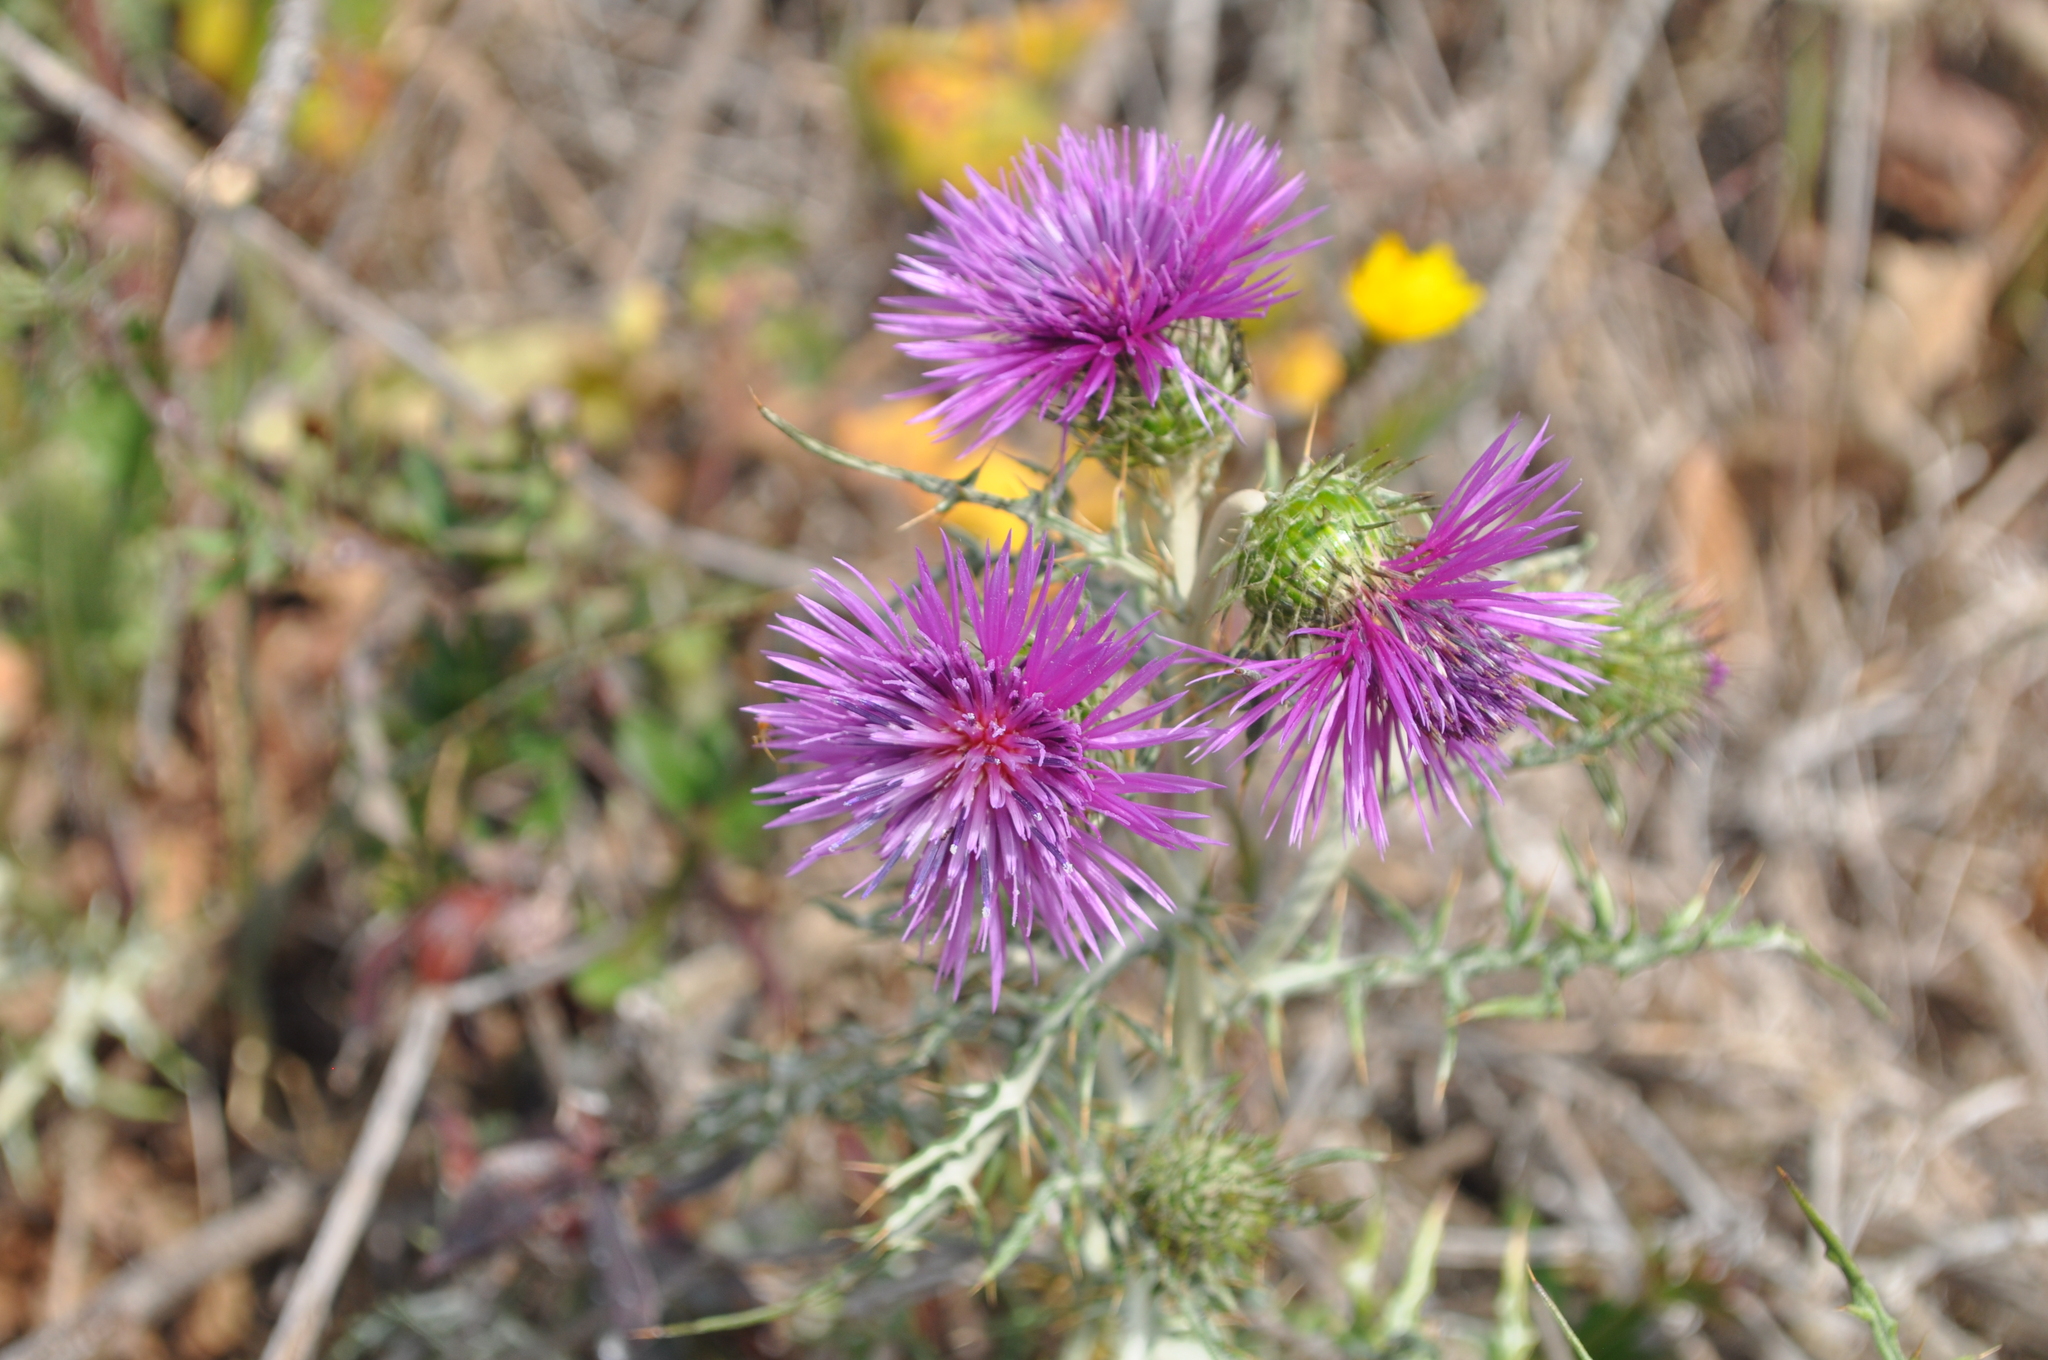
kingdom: Plantae
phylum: Tracheophyta
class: Magnoliopsida
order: Asterales
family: Asteraceae
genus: Galactites
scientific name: Galactites tomentosa
